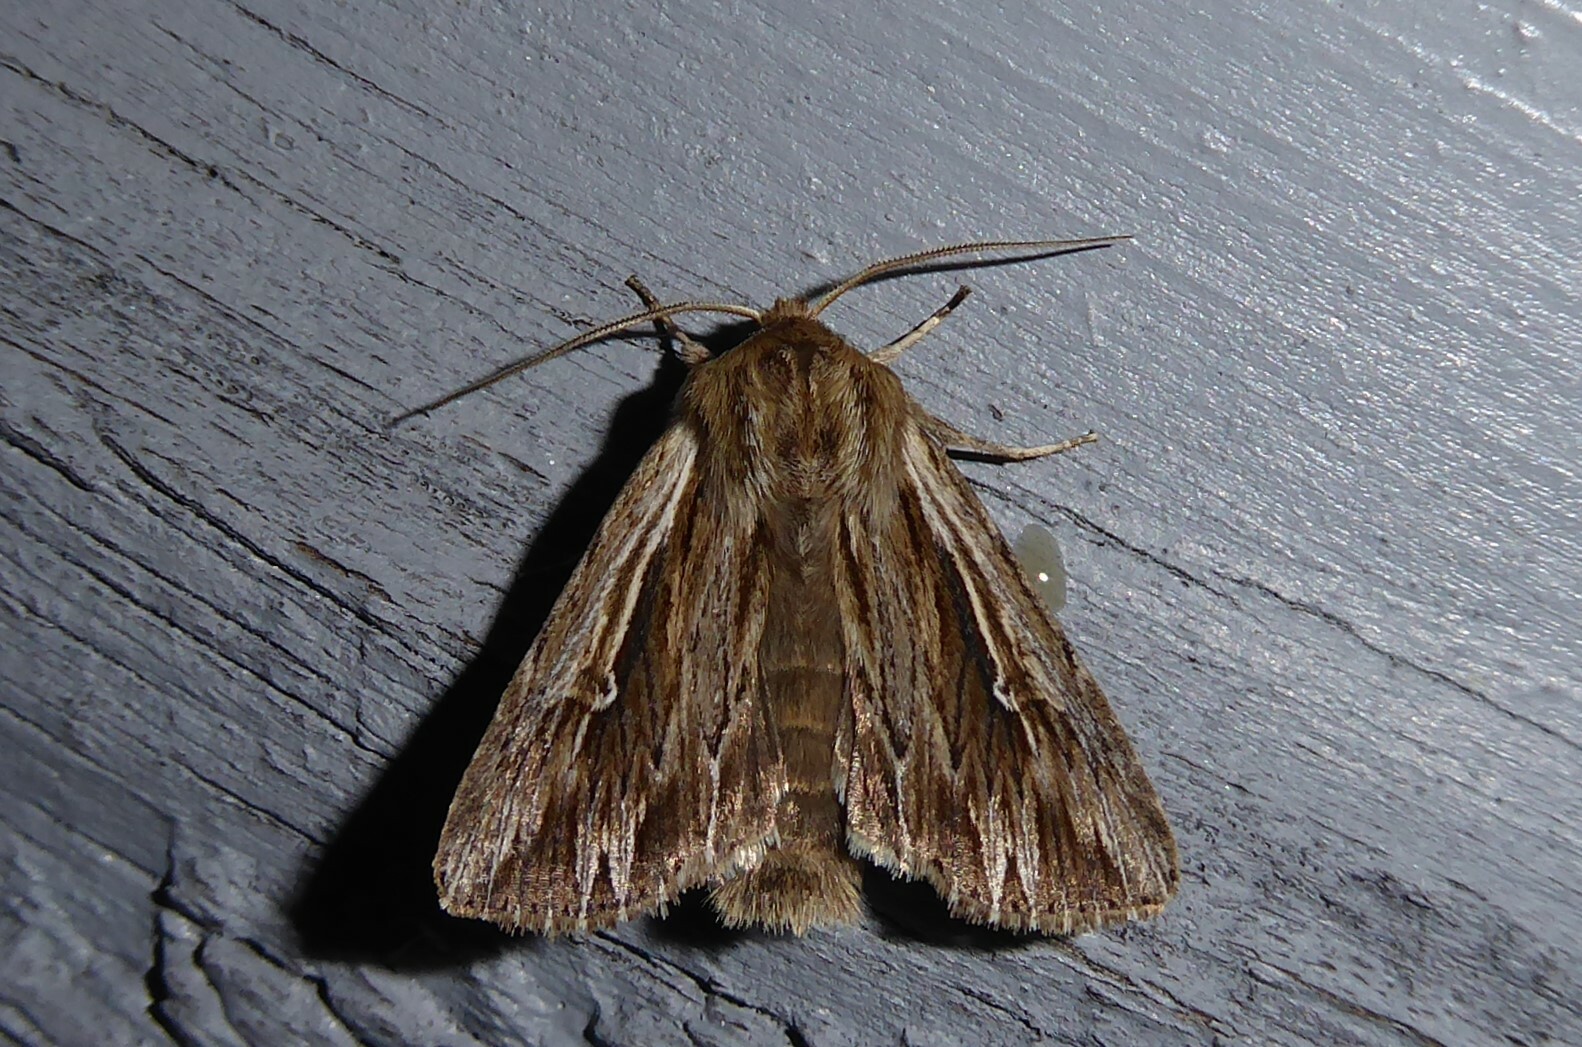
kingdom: Animalia
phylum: Arthropoda
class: Insecta
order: Lepidoptera
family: Noctuidae
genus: Persectania
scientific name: Persectania aversa
